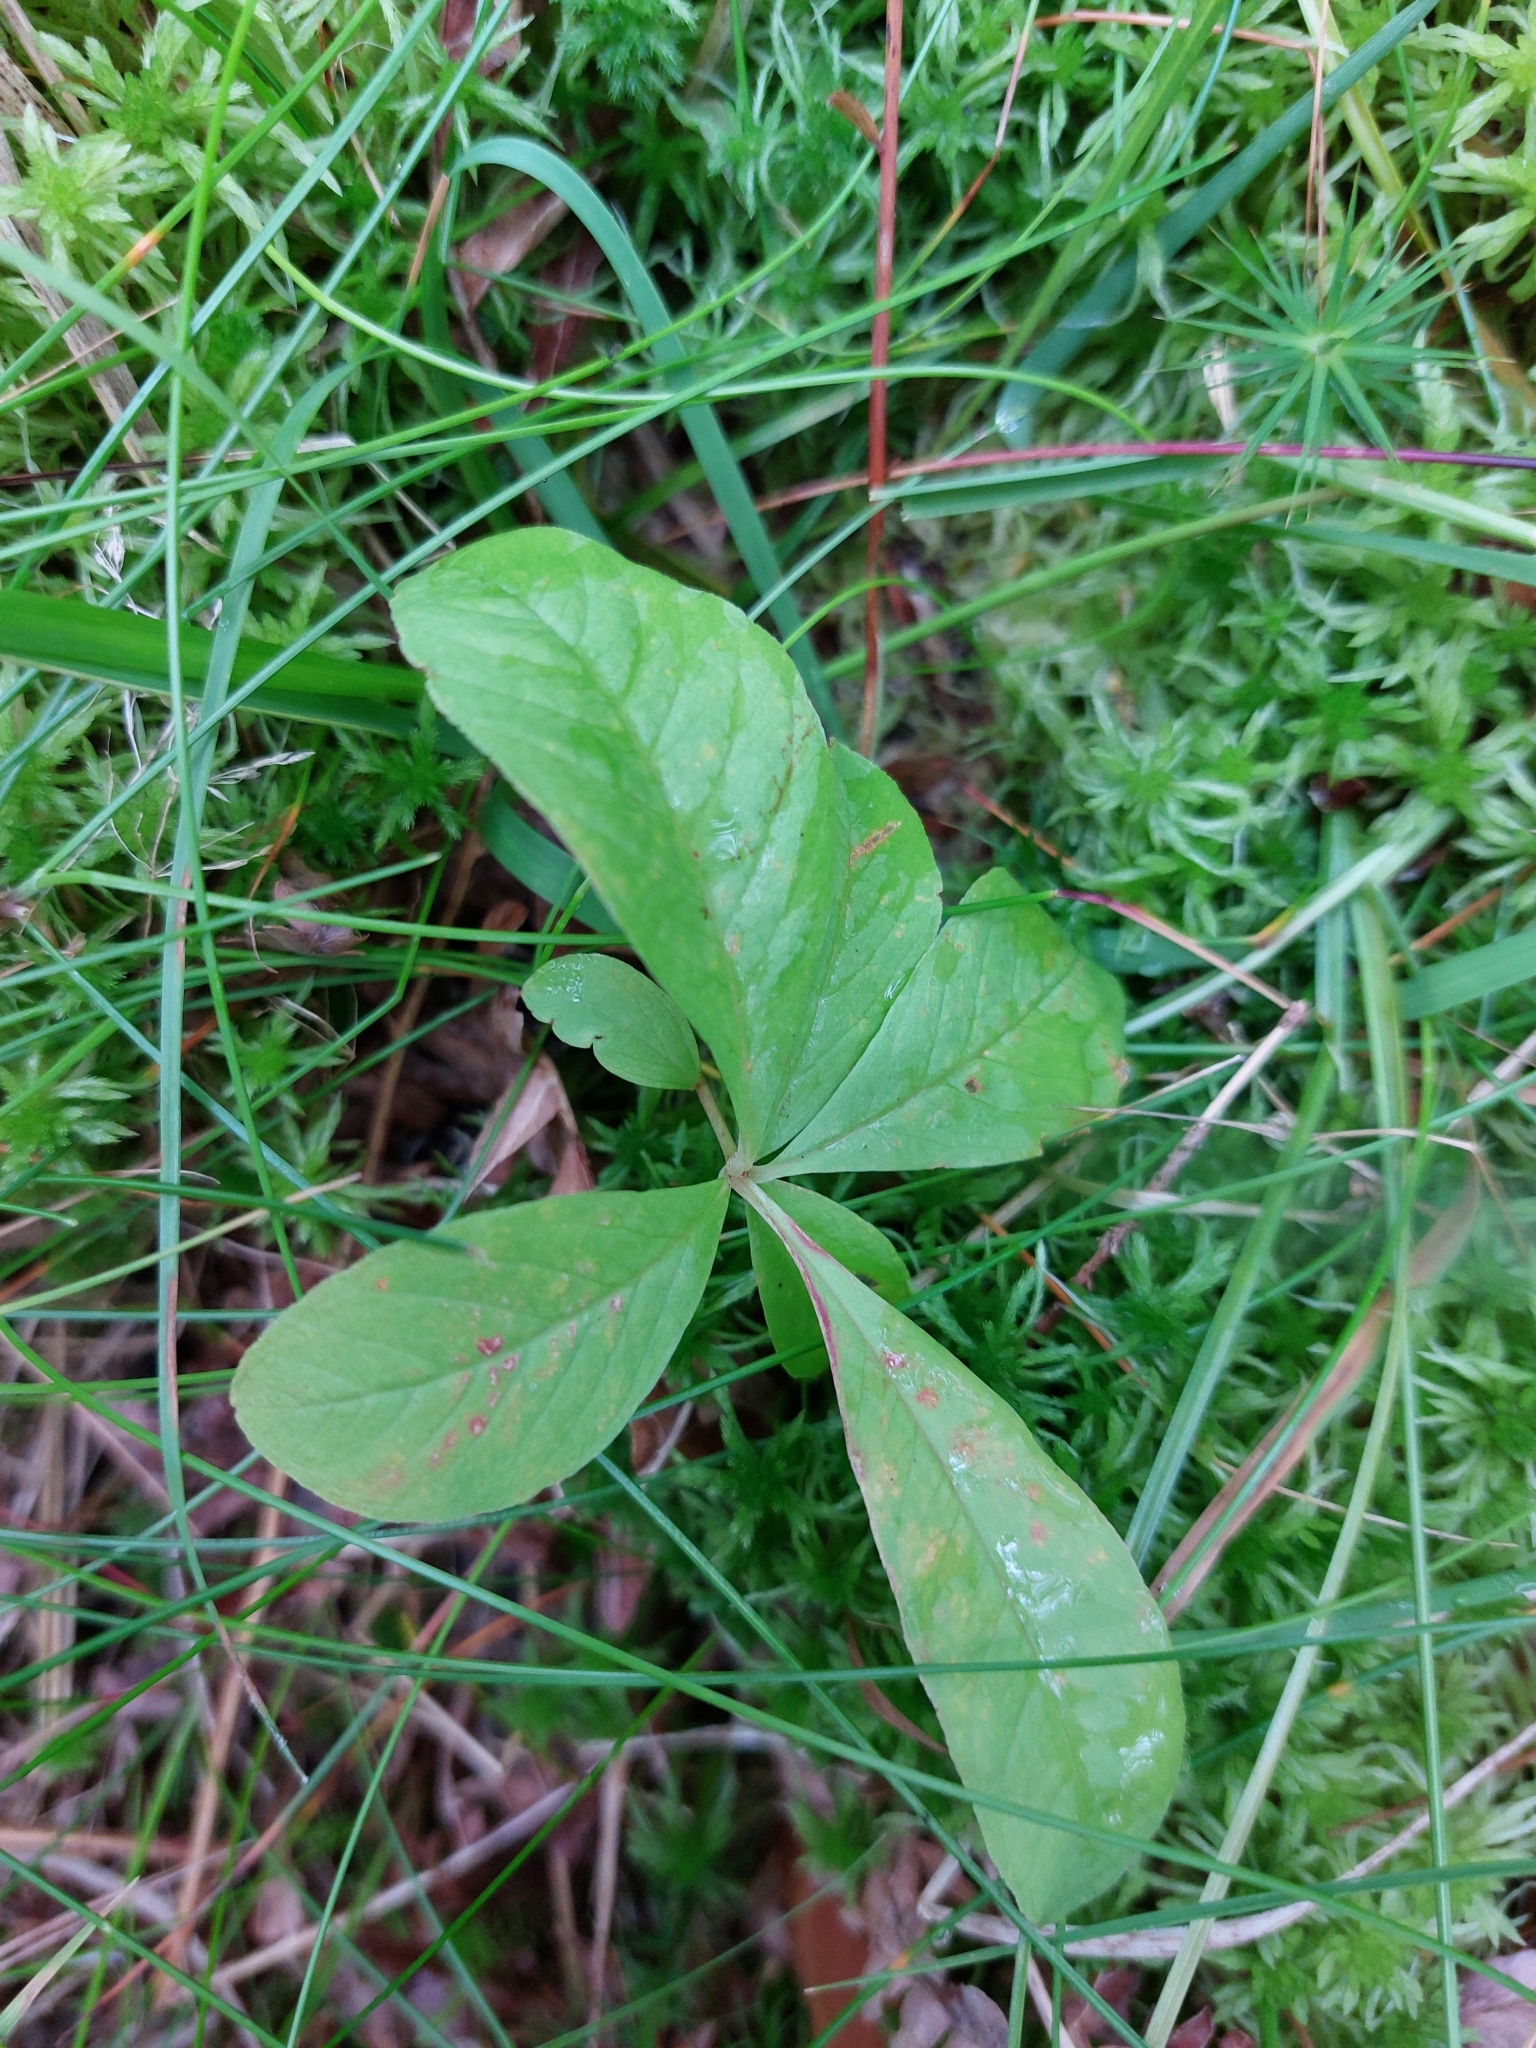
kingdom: Plantae
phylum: Tracheophyta
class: Magnoliopsida
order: Ericales
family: Primulaceae
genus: Lysimachia
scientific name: Lysimachia europaea
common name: Arctic starflower
